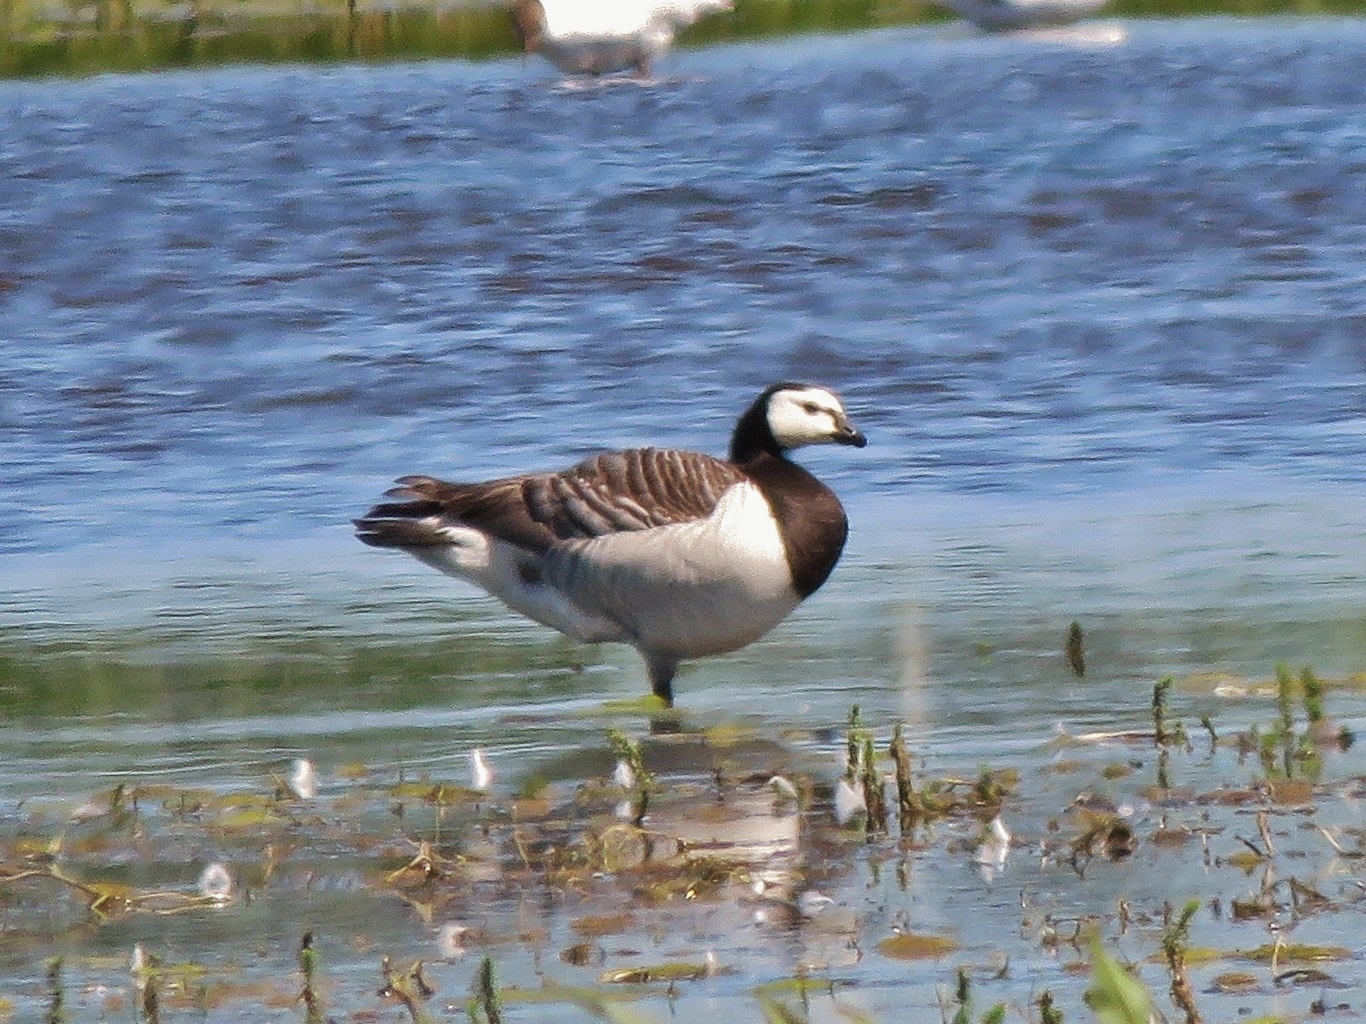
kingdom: Animalia
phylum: Chordata
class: Aves
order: Anseriformes
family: Anatidae
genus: Branta
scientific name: Branta leucopsis
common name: Barnacle goose
